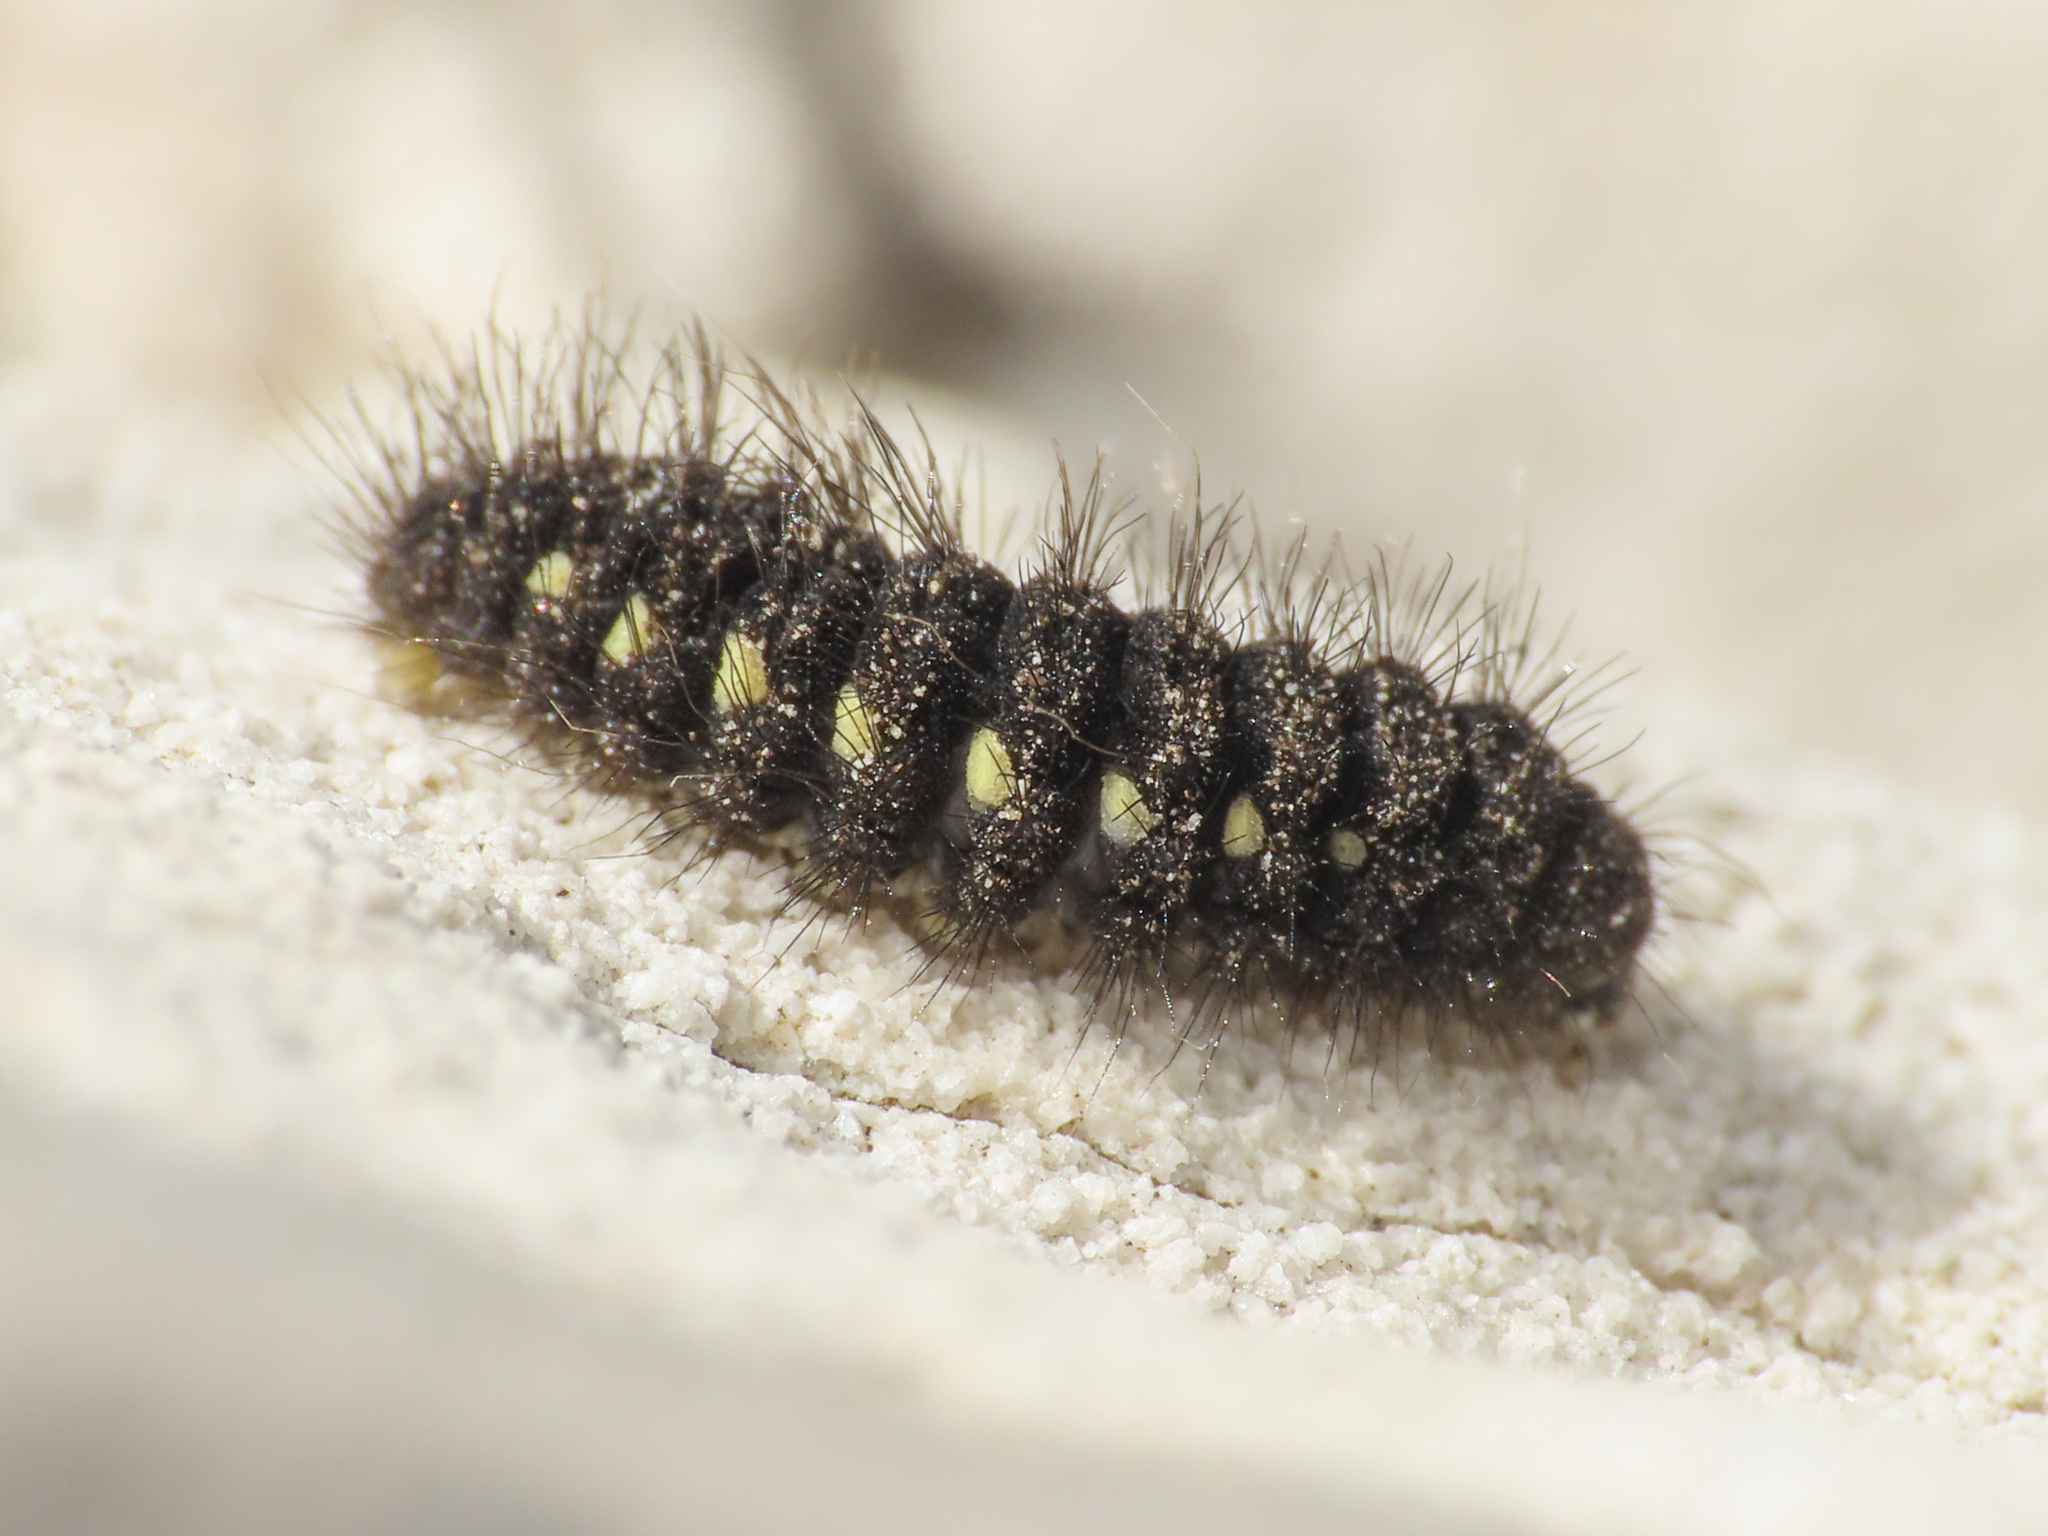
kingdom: Animalia
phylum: Arthropoda
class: Insecta
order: Lepidoptera
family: Zygaenidae
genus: Zygaena
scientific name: Zygaena exulans
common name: Scotch burnet
